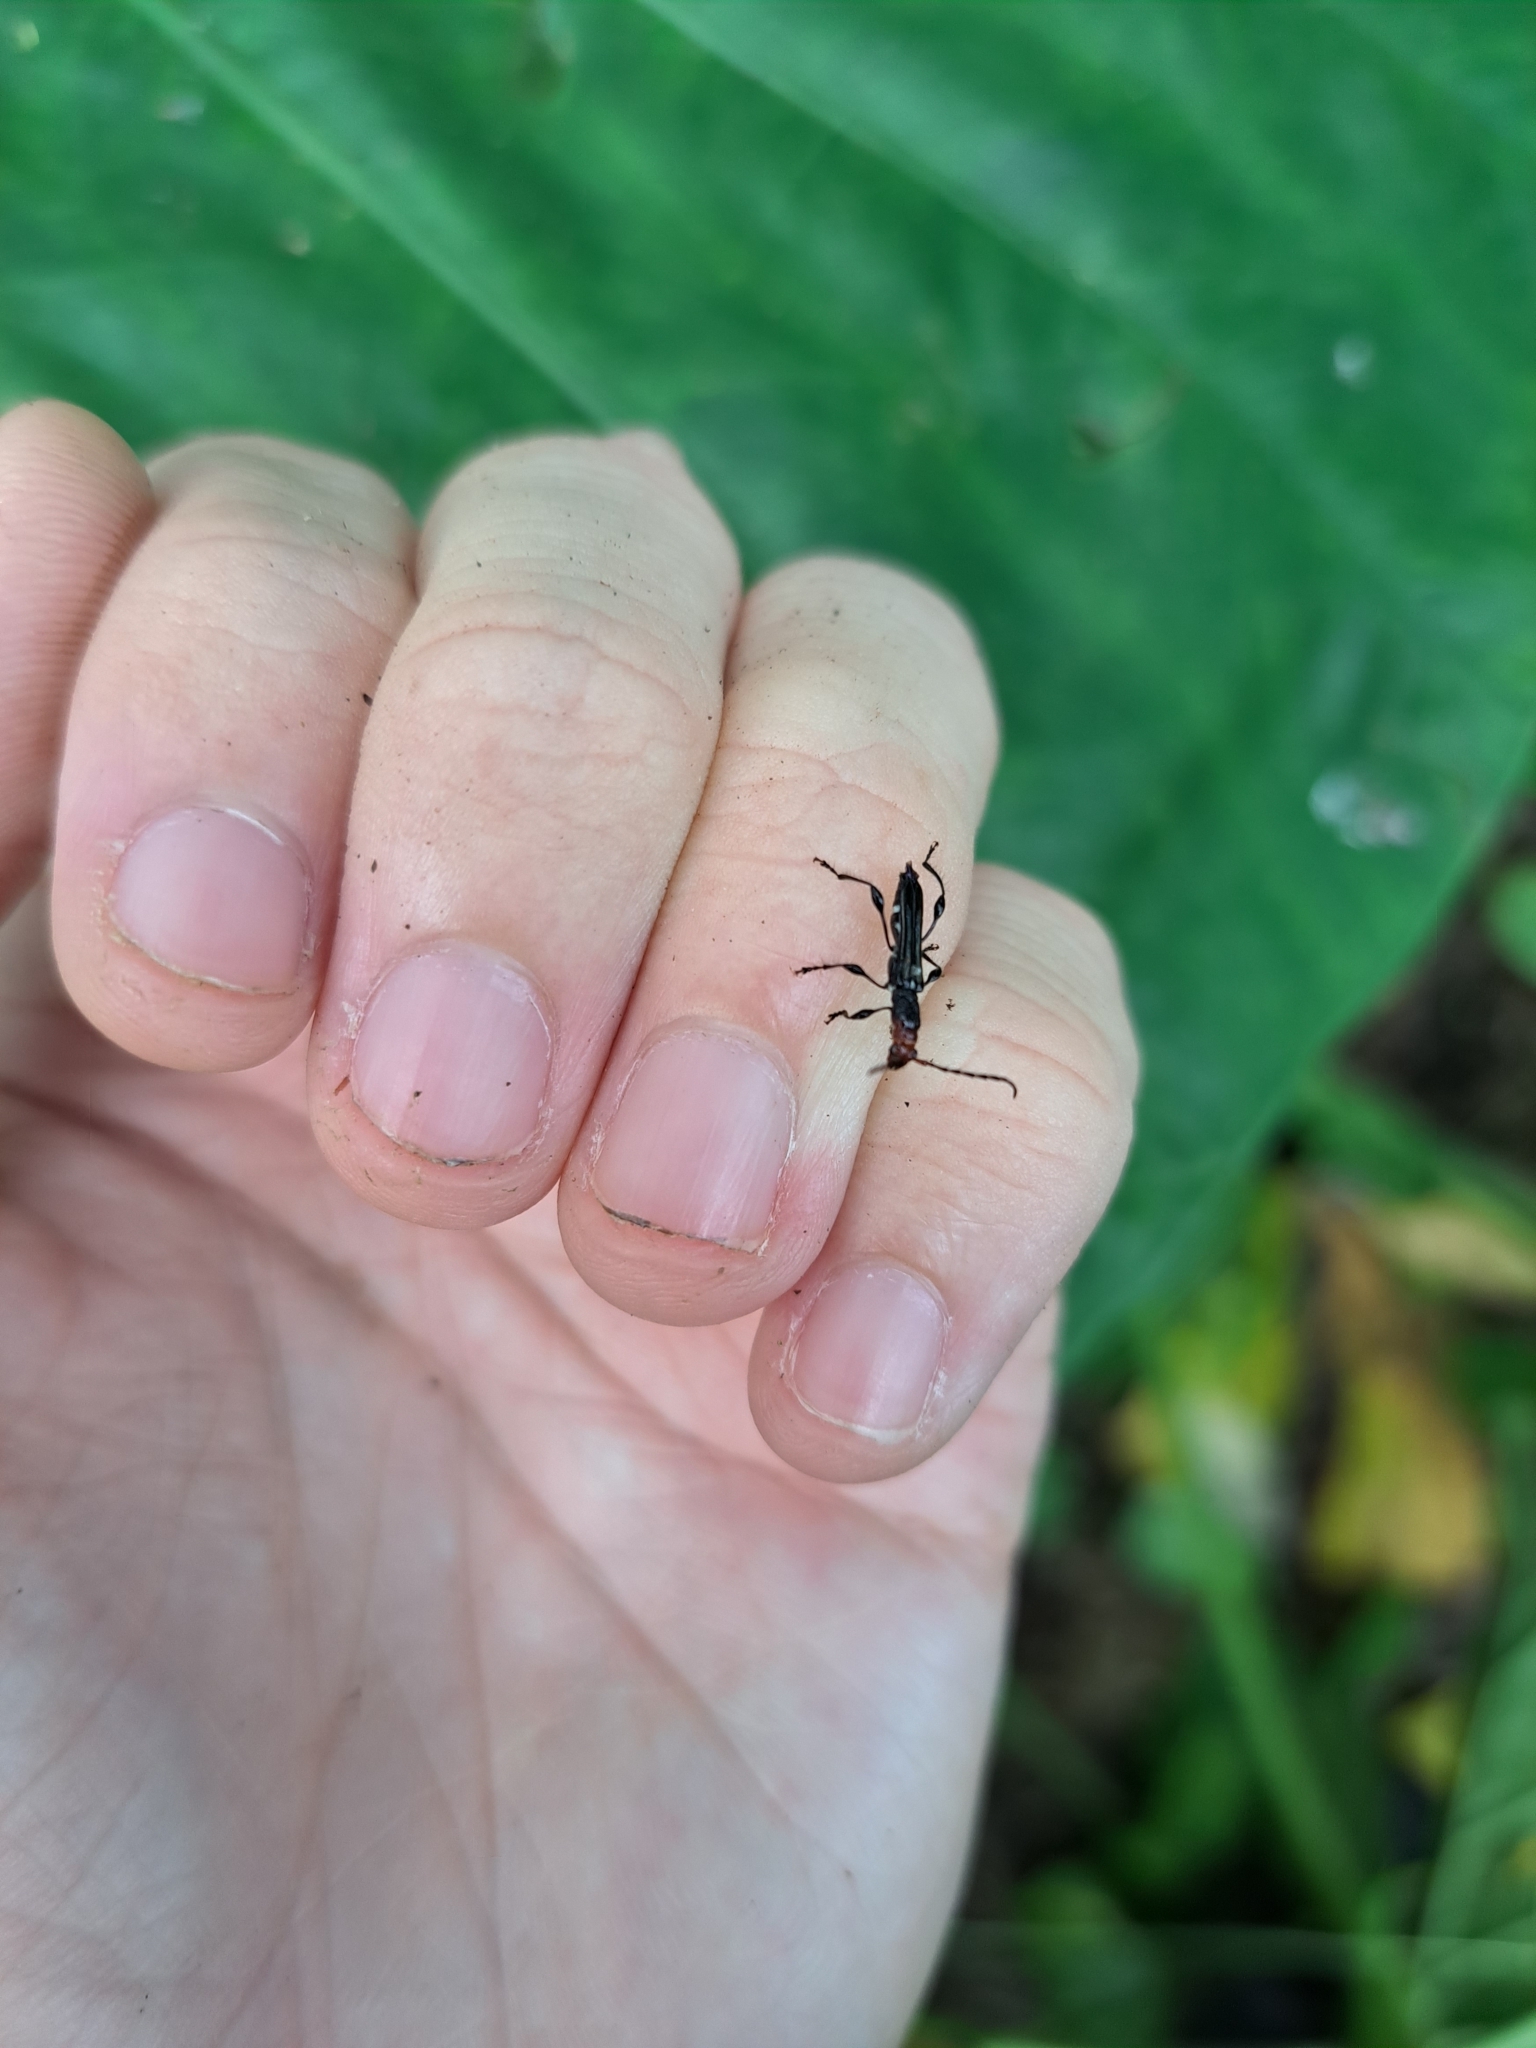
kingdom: Animalia
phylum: Arthropoda
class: Insecta
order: Coleoptera
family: Cerambycidae
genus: Artimpaza
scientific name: Artimpaza odontoceroides
